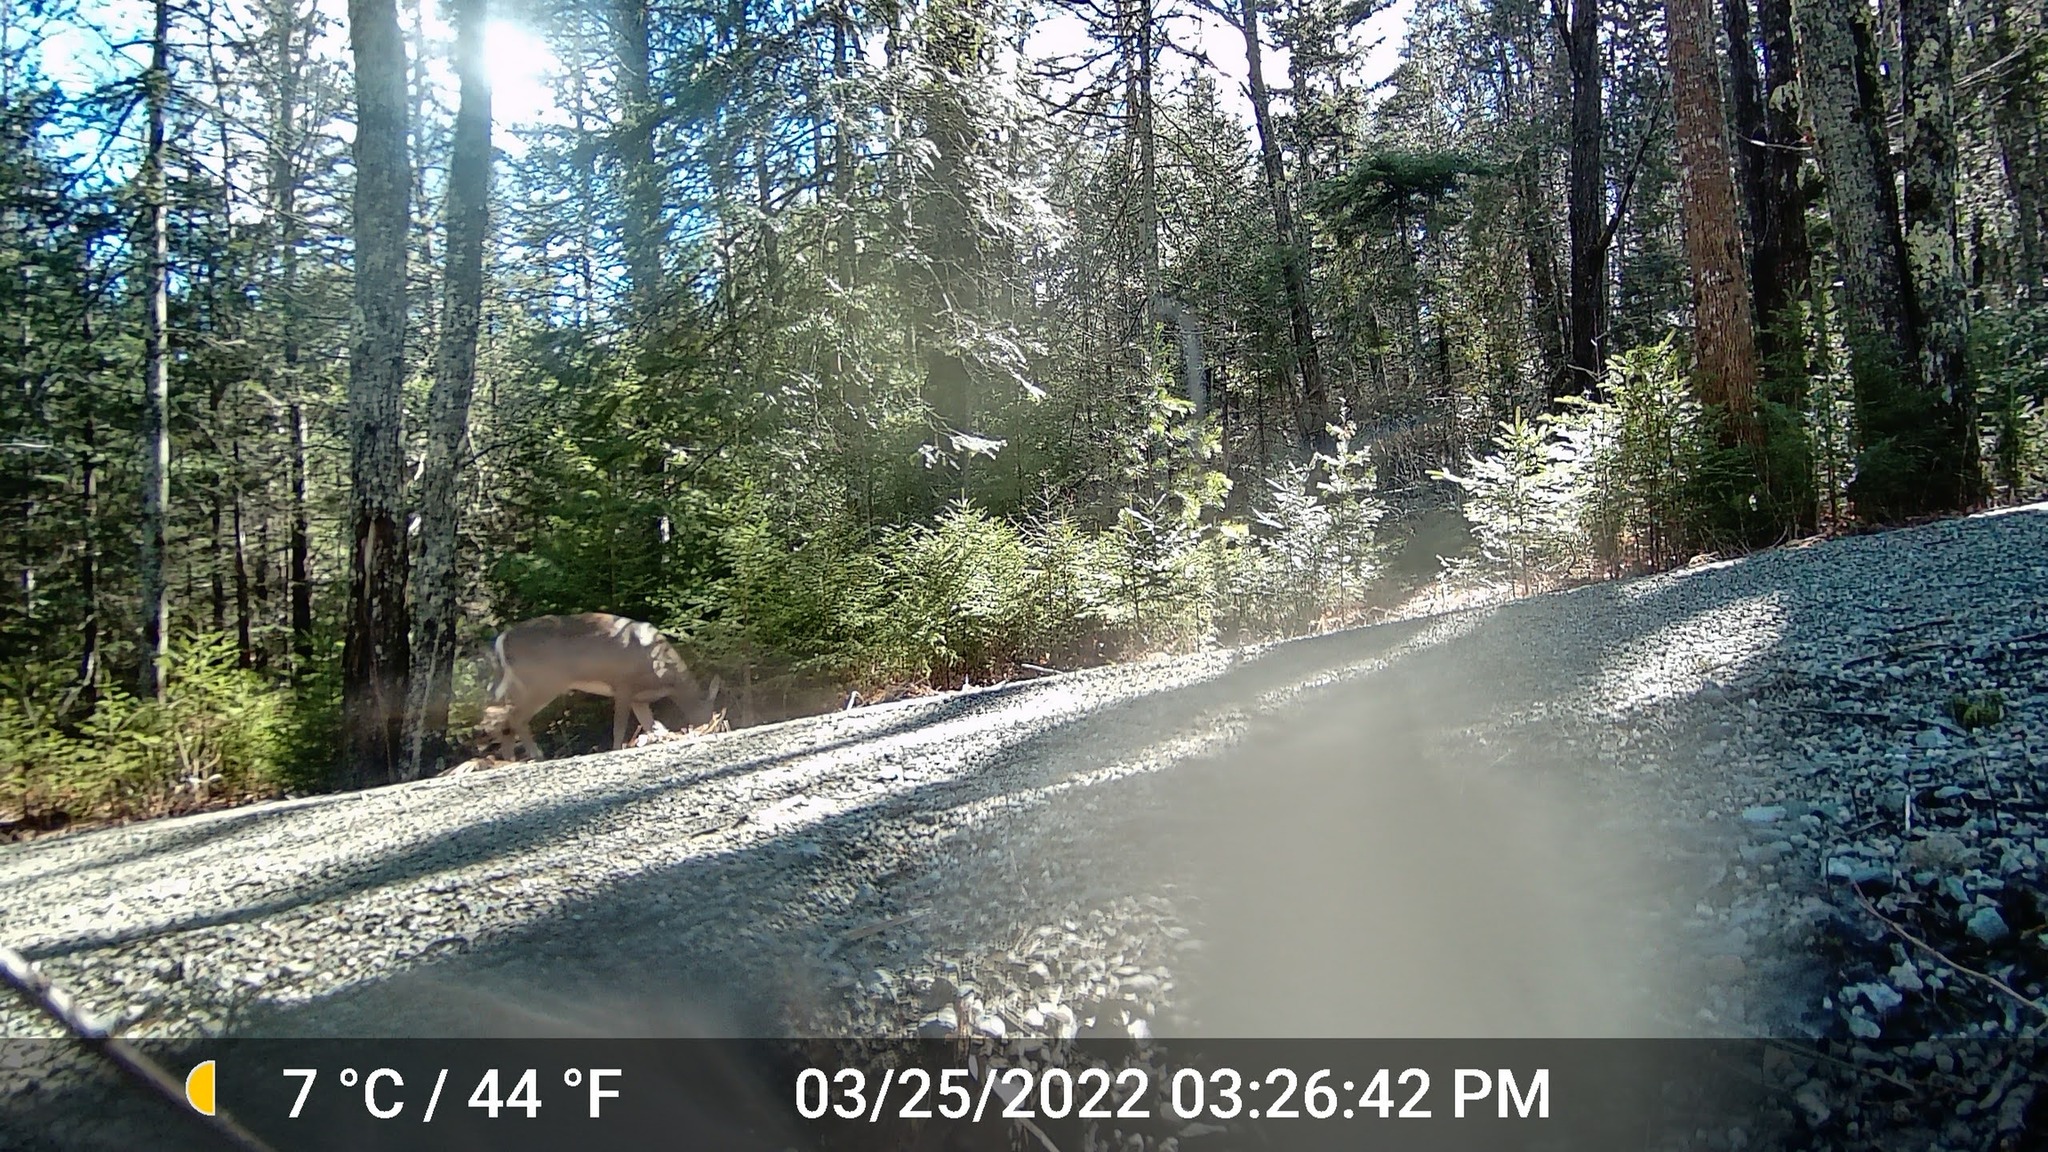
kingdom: Animalia
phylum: Chordata
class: Mammalia
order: Artiodactyla
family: Cervidae
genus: Odocoileus
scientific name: Odocoileus virginianus
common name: White-tailed deer
